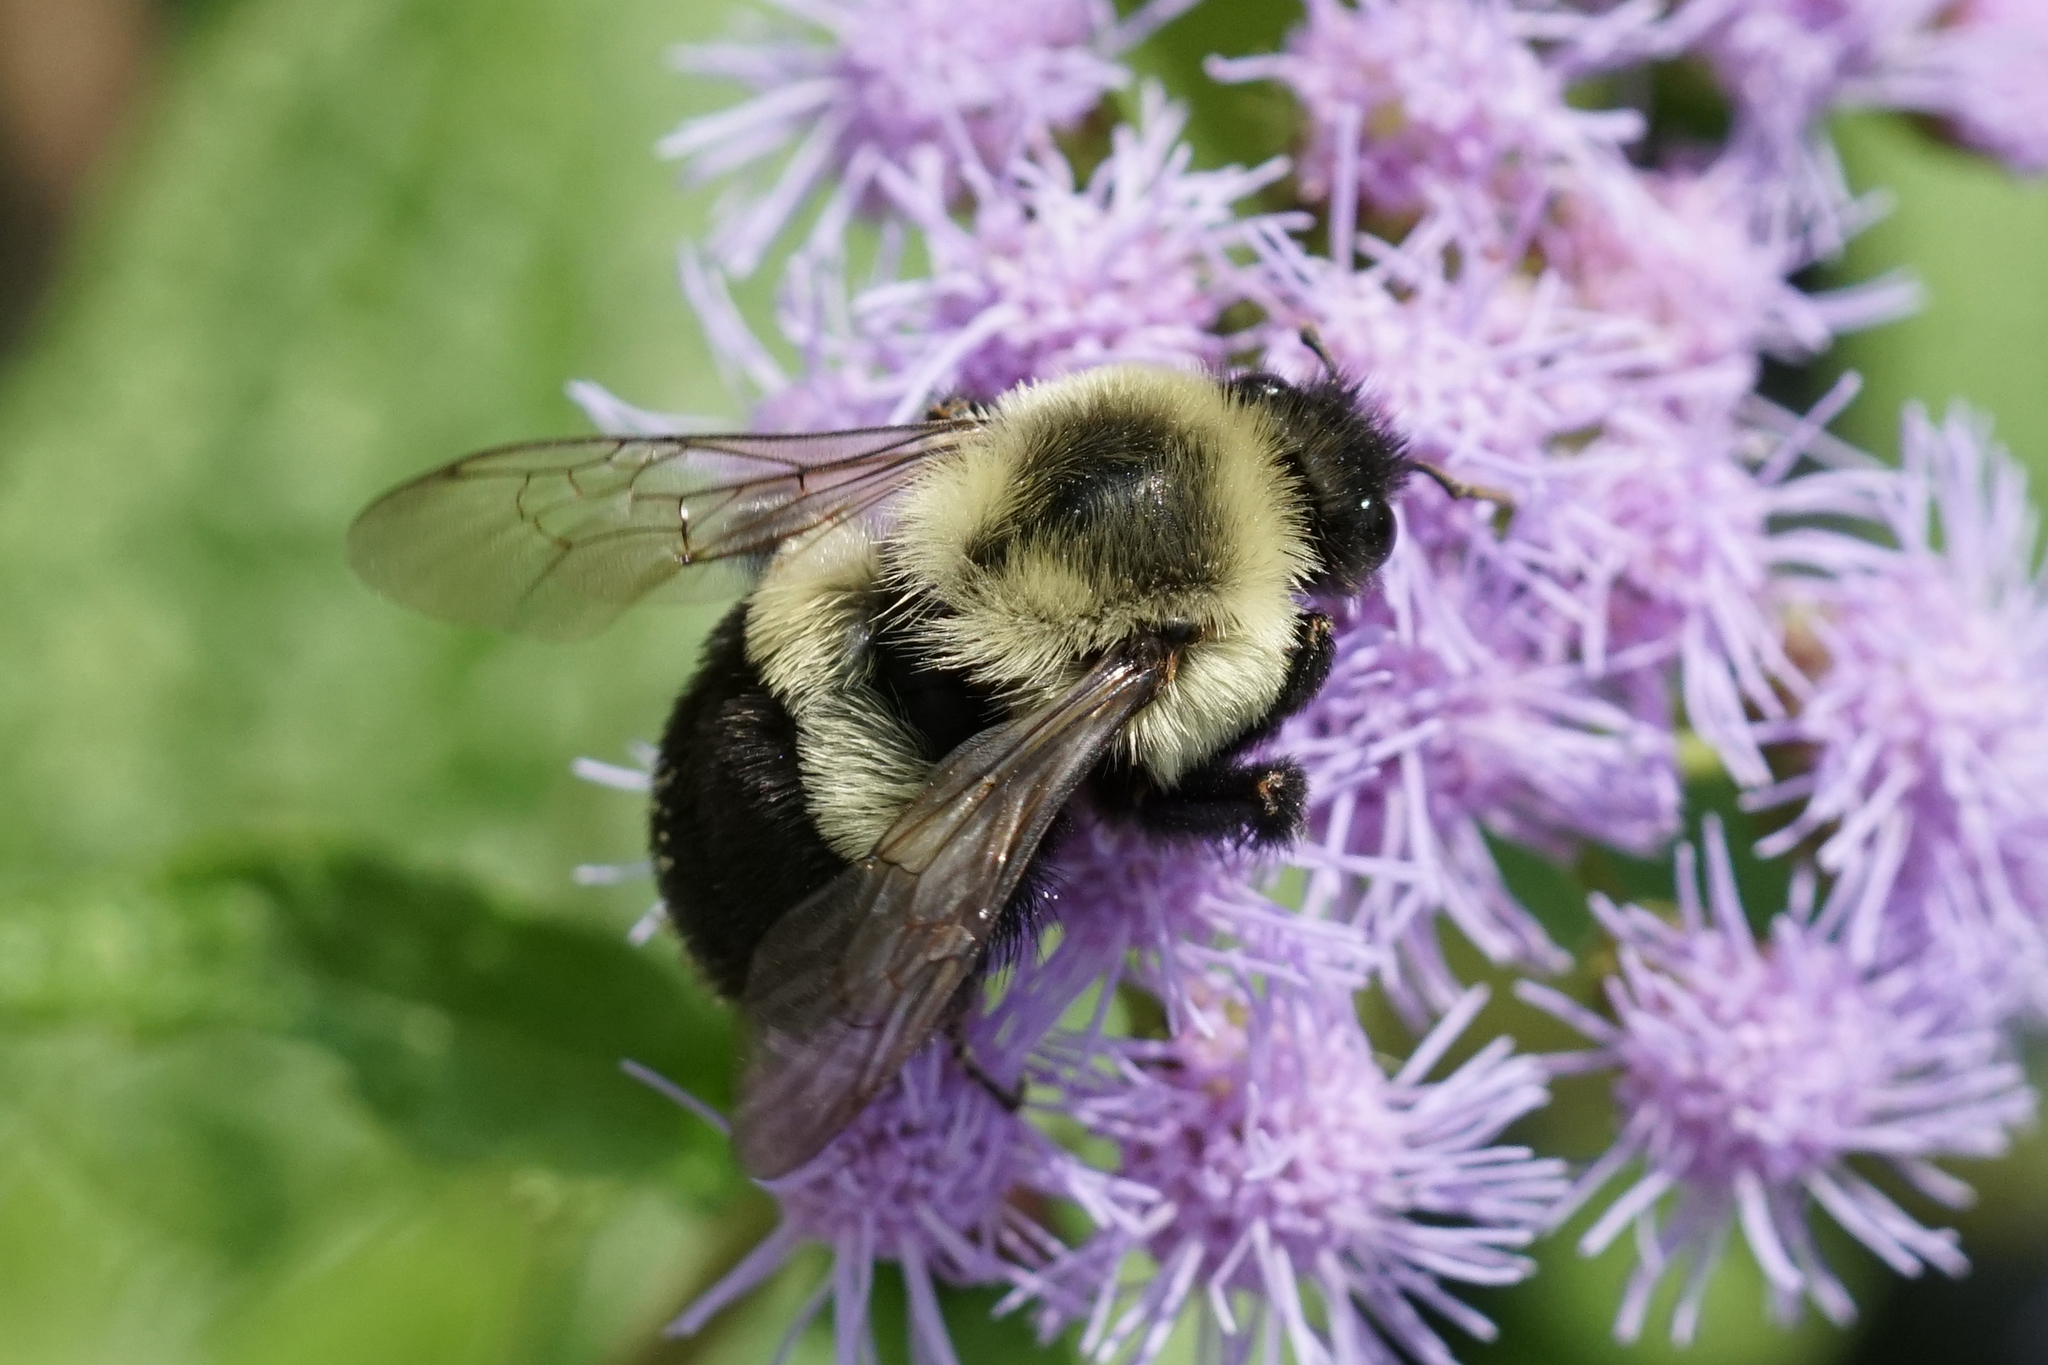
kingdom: Animalia
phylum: Arthropoda
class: Insecta
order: Hymenoptera
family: Apidae
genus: Bombus
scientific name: Bombus impatiens
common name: Common eastern bumble bee
